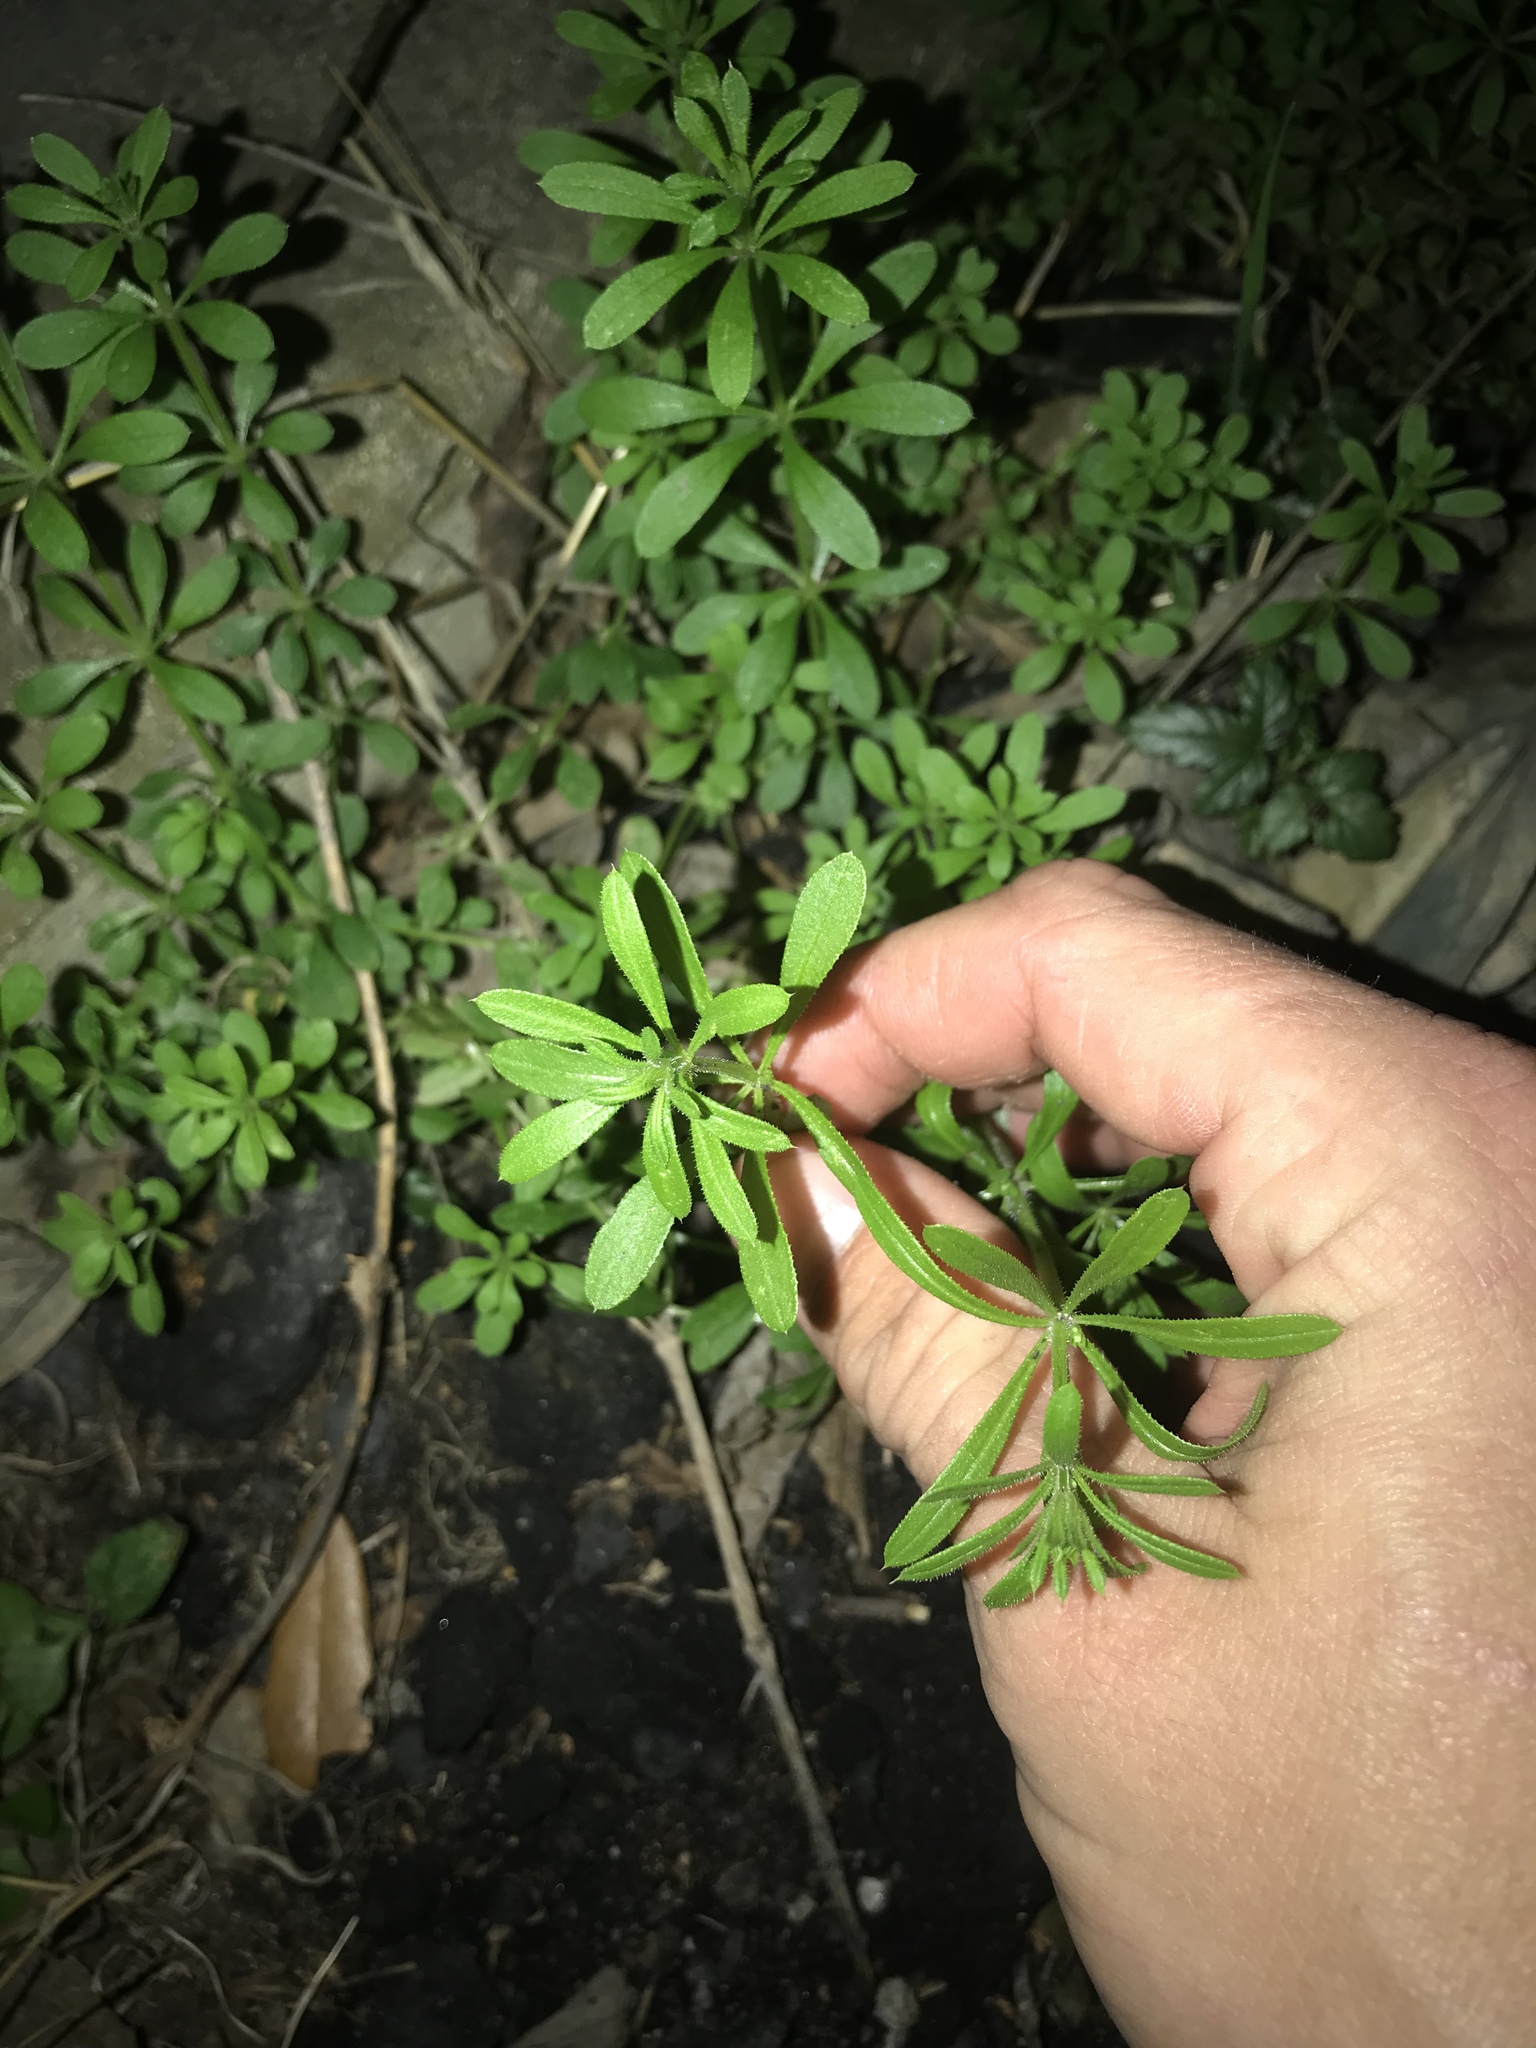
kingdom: Plantae
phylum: Tracheophyta
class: Magnoliopsida
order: Gentianales
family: Rubiaceae
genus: Galium
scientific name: Galium aparine
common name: Cleavers
